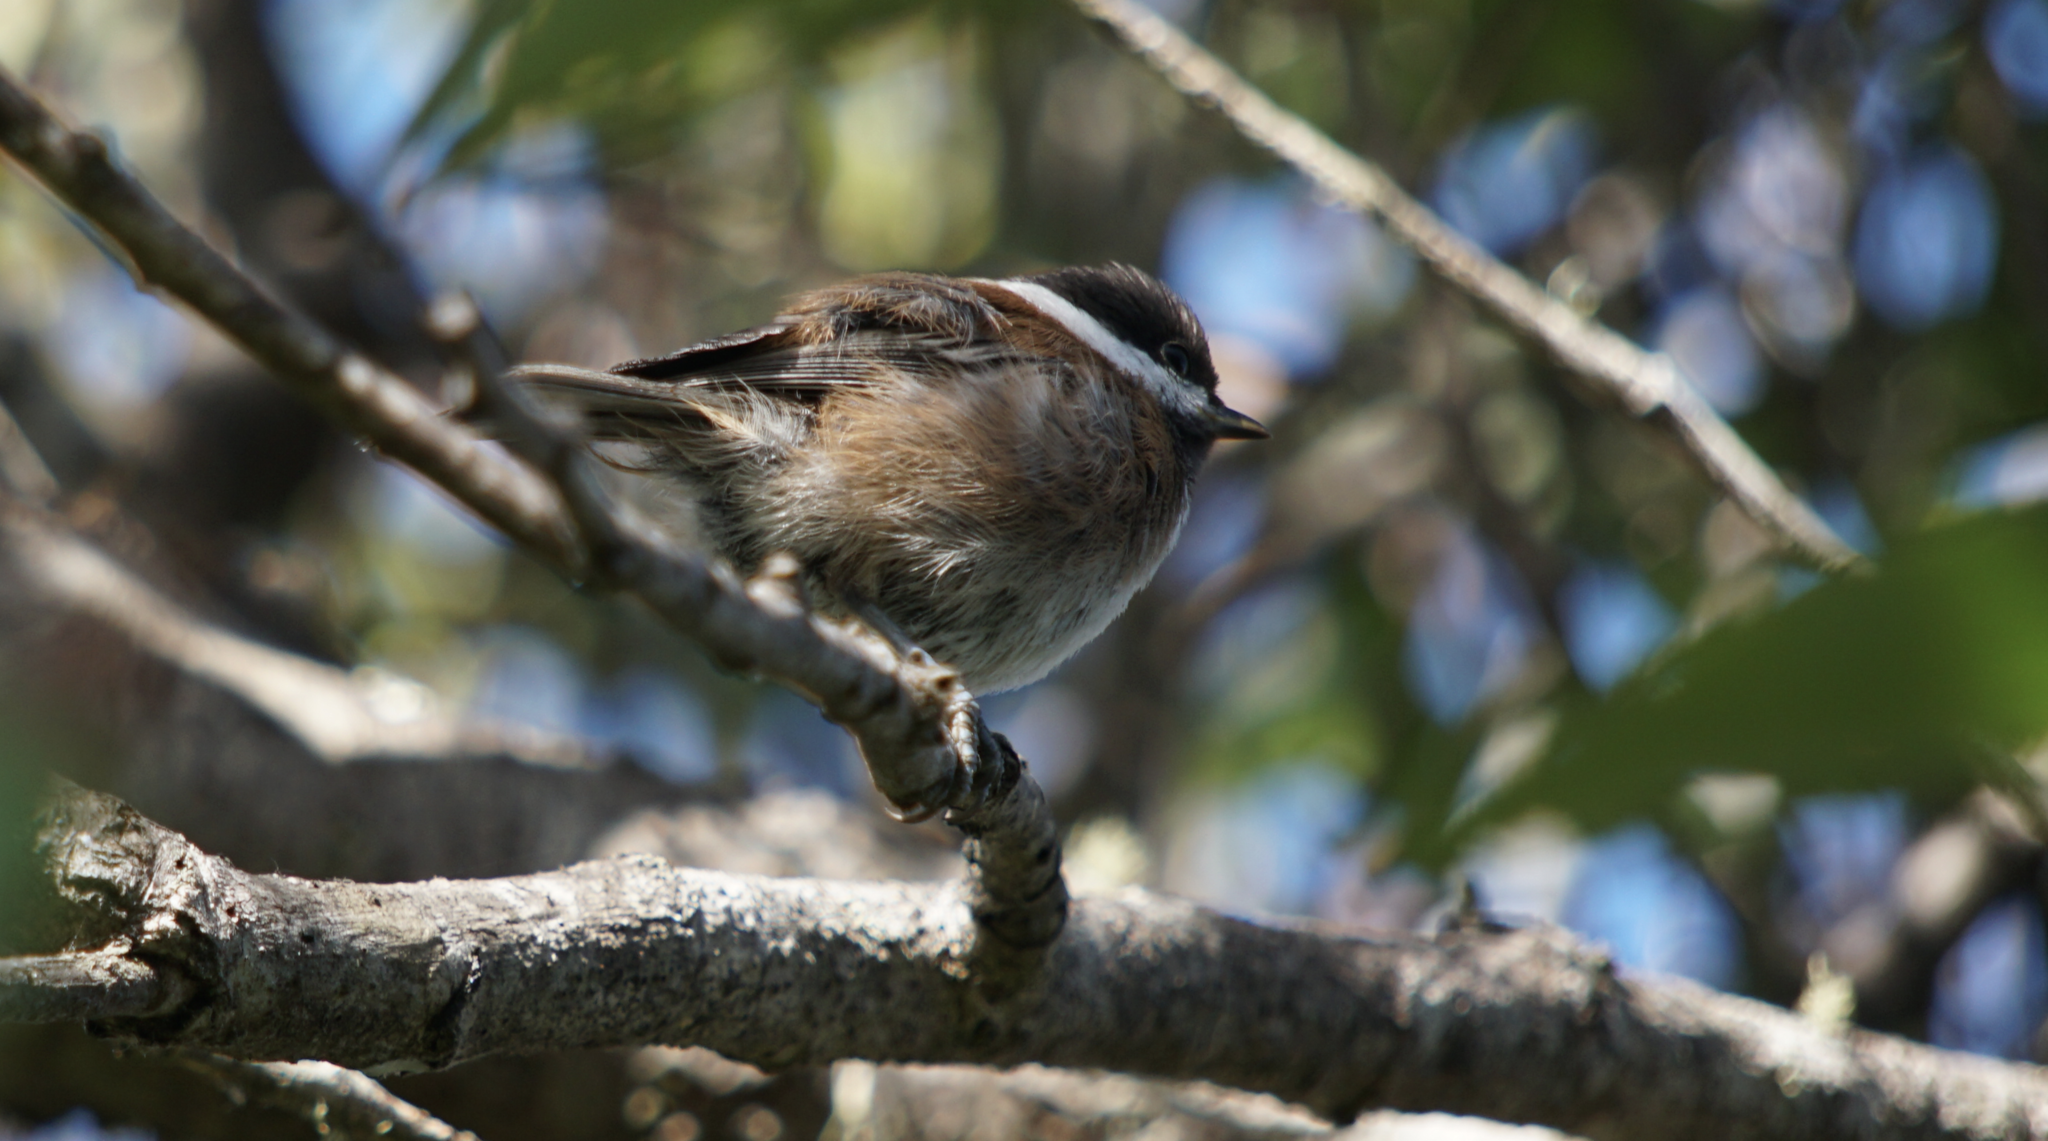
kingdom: Animalia
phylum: Chordata
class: Aves
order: Passeriformes
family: Paridae
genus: Poecile
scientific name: Poecile rufescens
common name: Chestnut-backed chickadee
